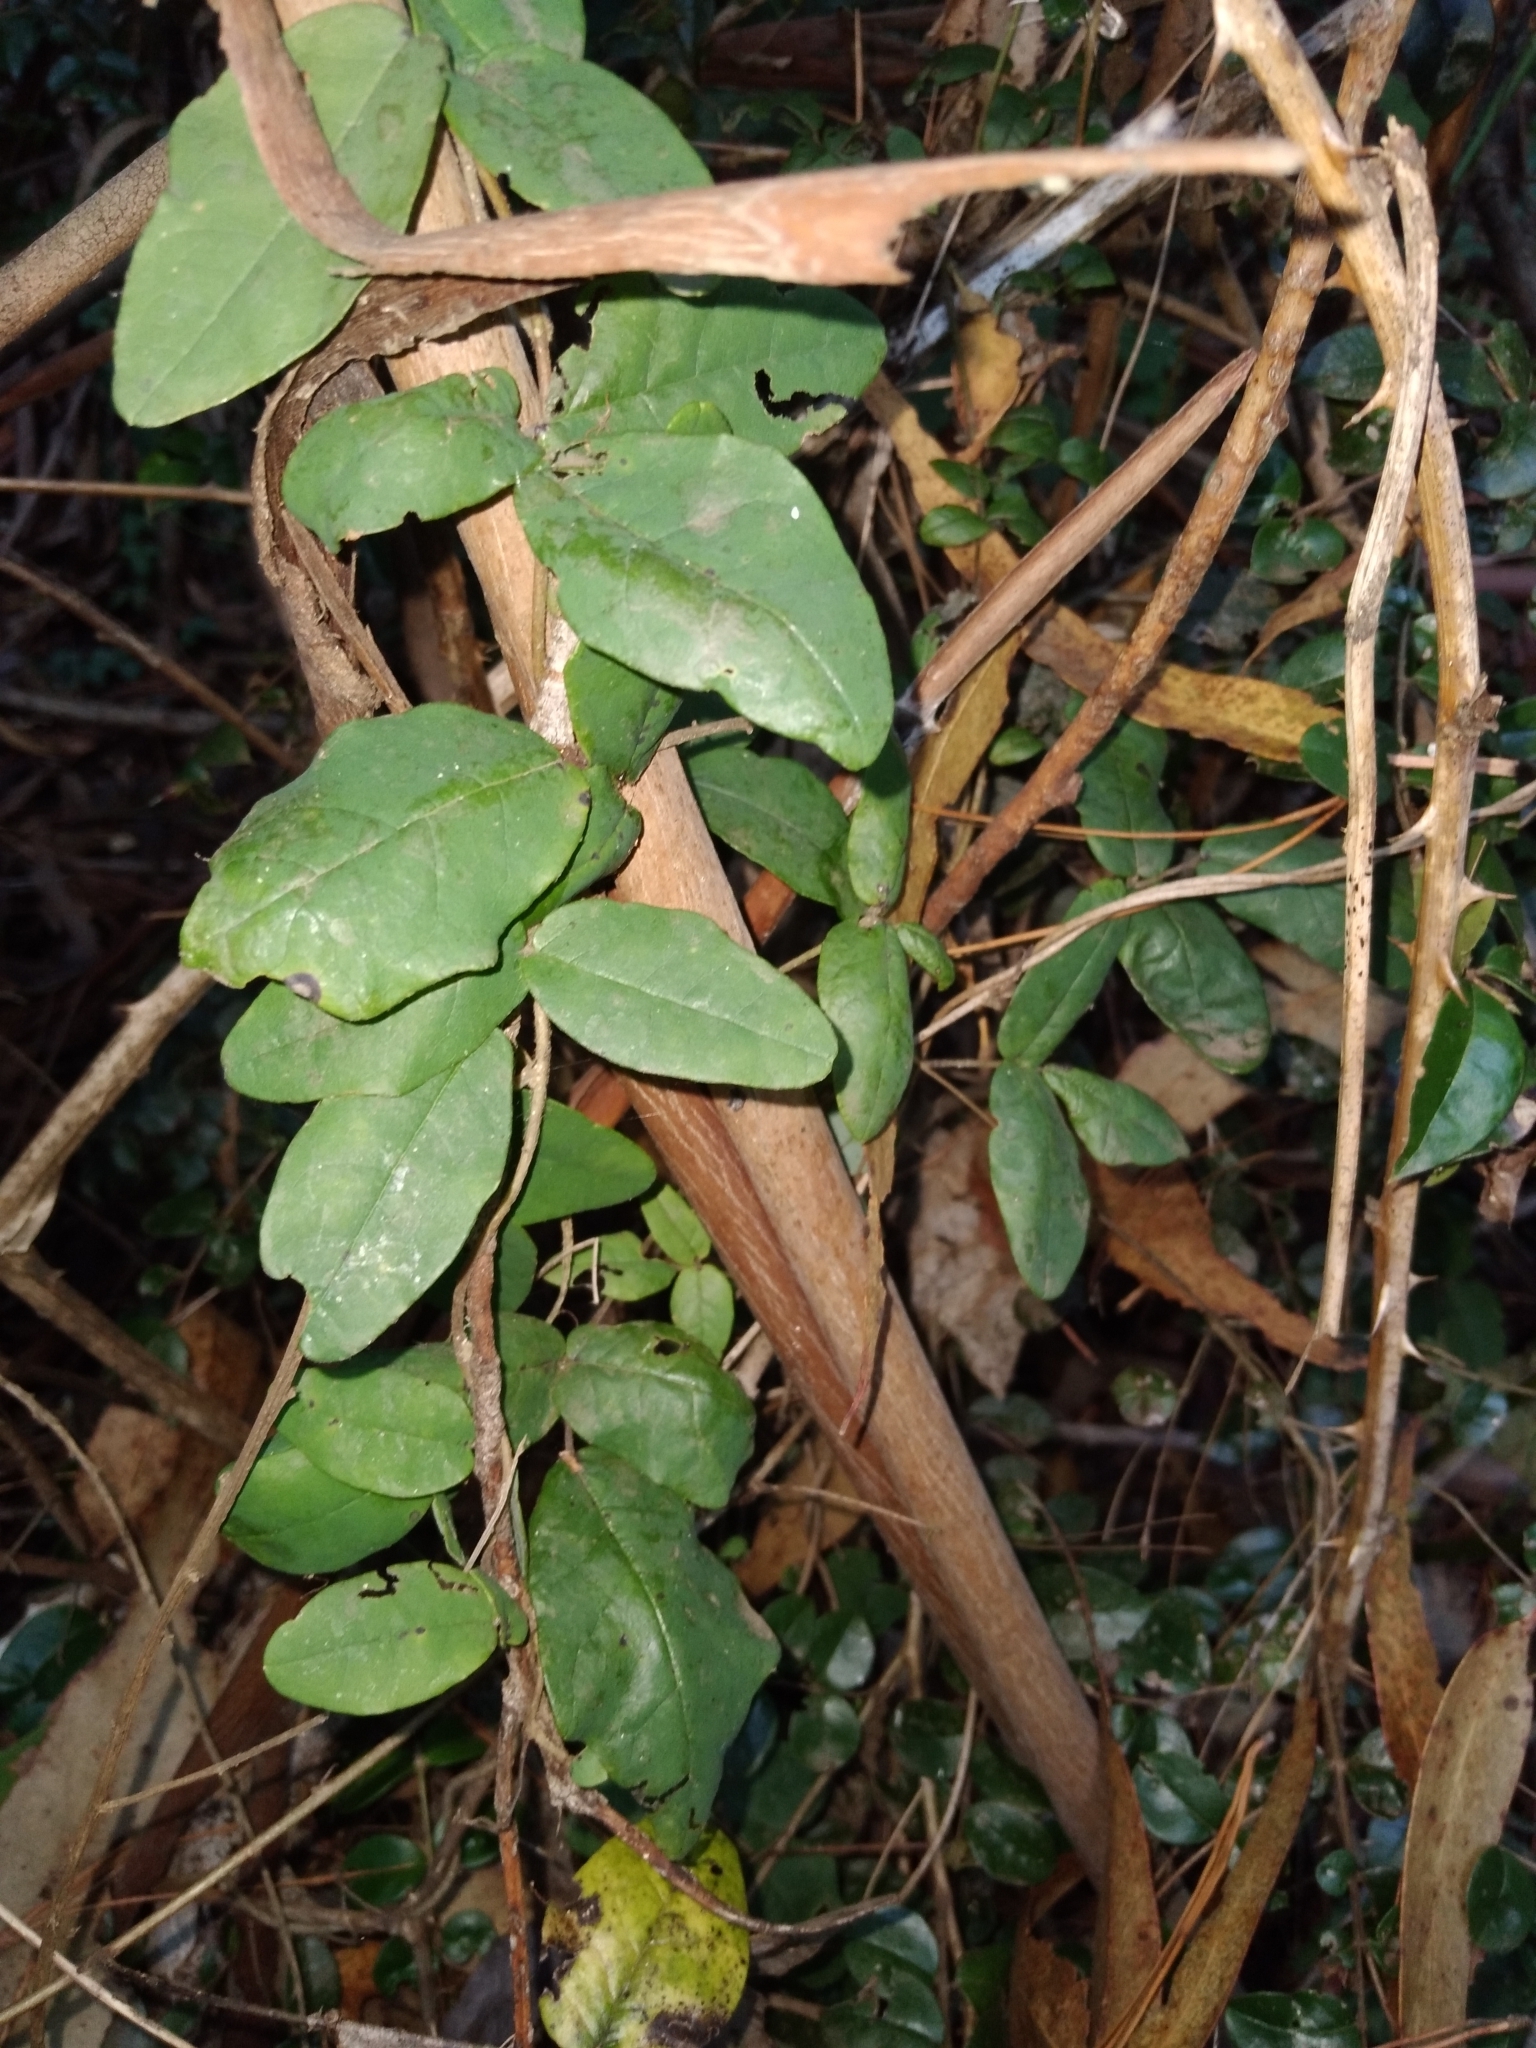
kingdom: Plantae
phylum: Tracheophyta
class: Magnoliopsida
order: Ranunculales
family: Lardizabalaceae
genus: Boquila
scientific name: Boquila trifoliolata
